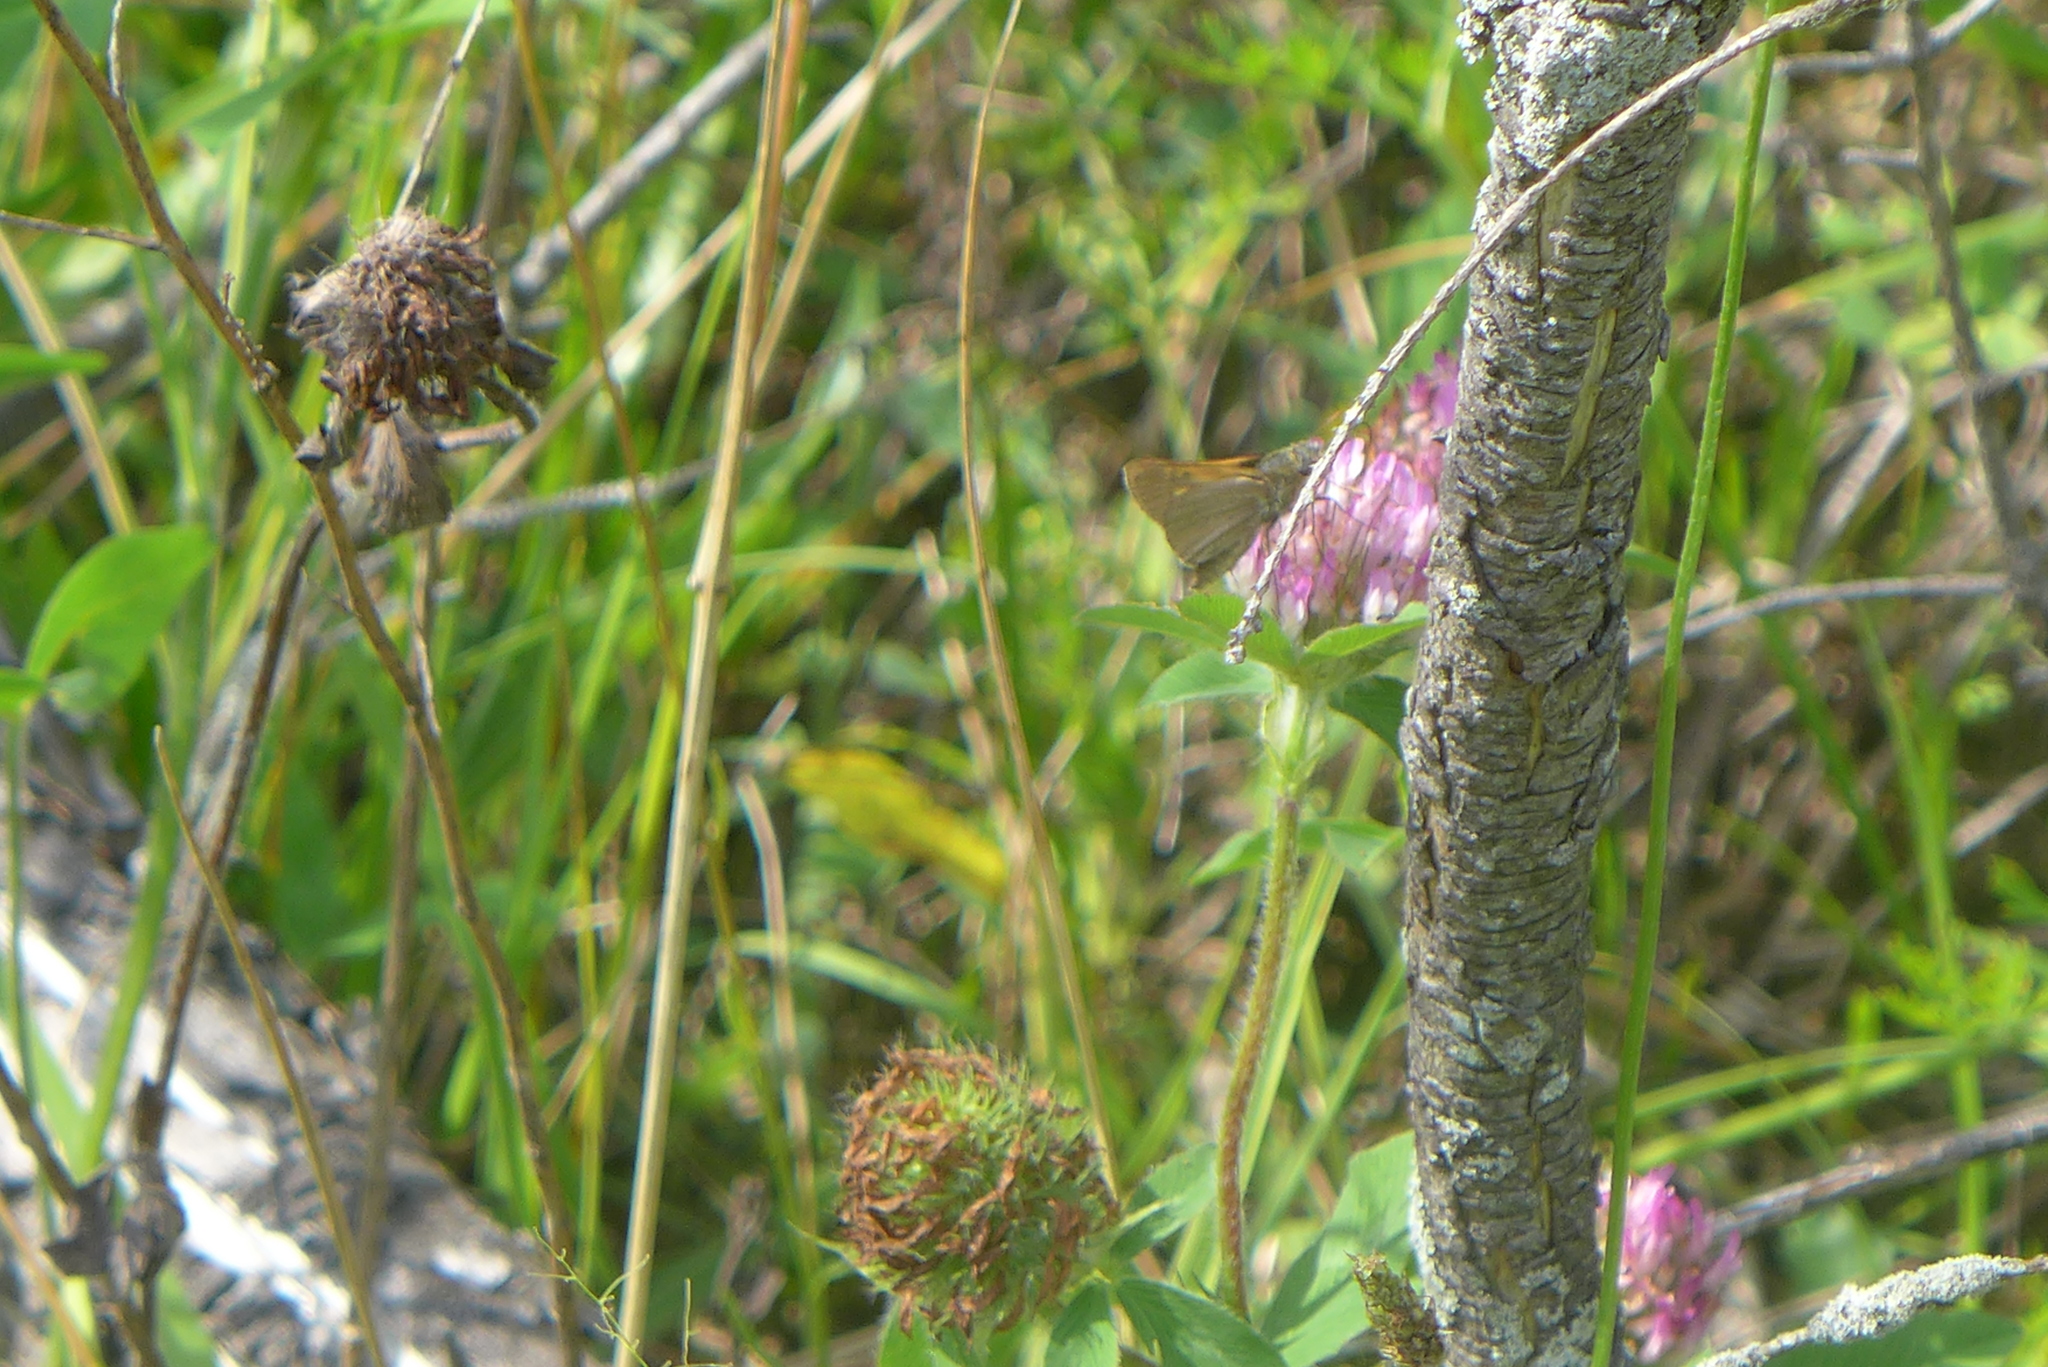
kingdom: Animalia
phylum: Arthropoda
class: Insecta
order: Lepidoptera
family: Hesperiidae
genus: Polites
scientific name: Polites themistocles
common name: Tawny-edged skipper
